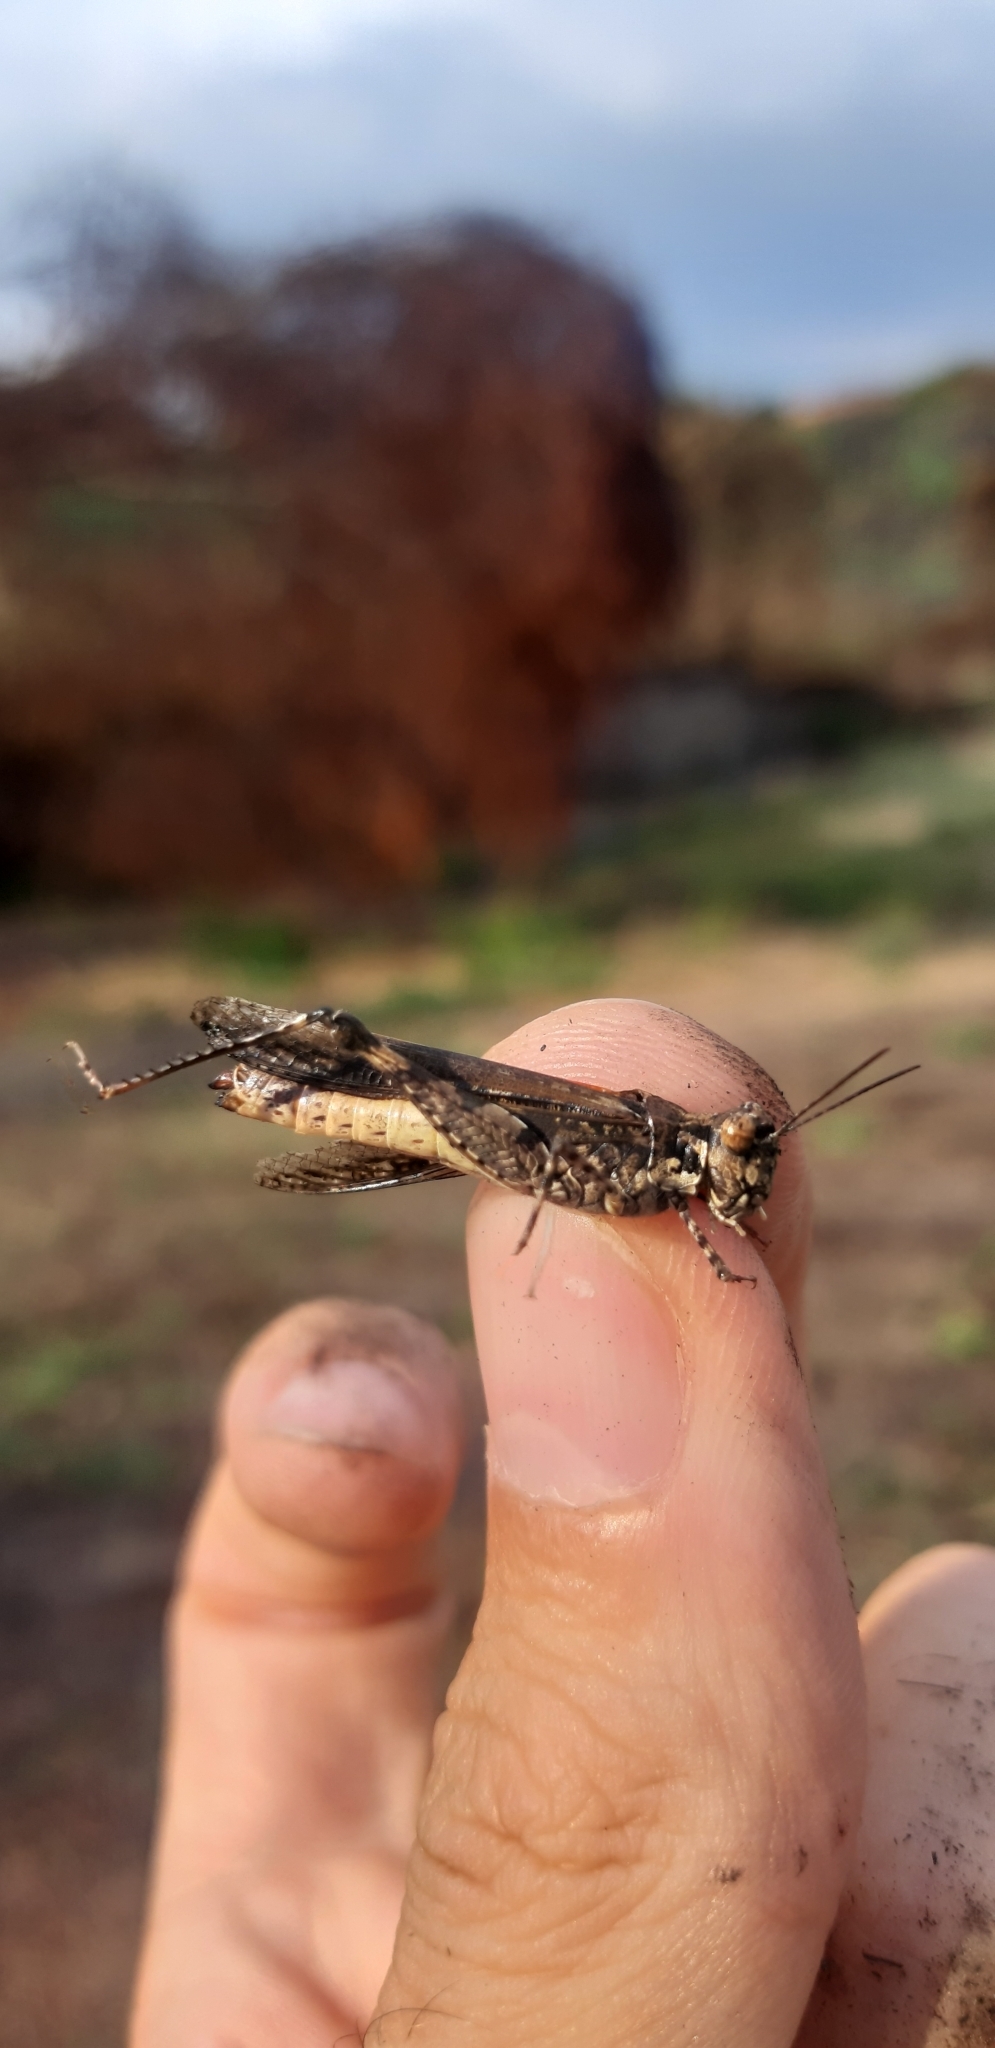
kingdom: Animalia
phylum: Arthropoda
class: Insecta
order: Orthoptera
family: Acrididae
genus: Acrotylus
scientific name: Acrotylus patruelis
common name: Slender burrowing grasshopper
